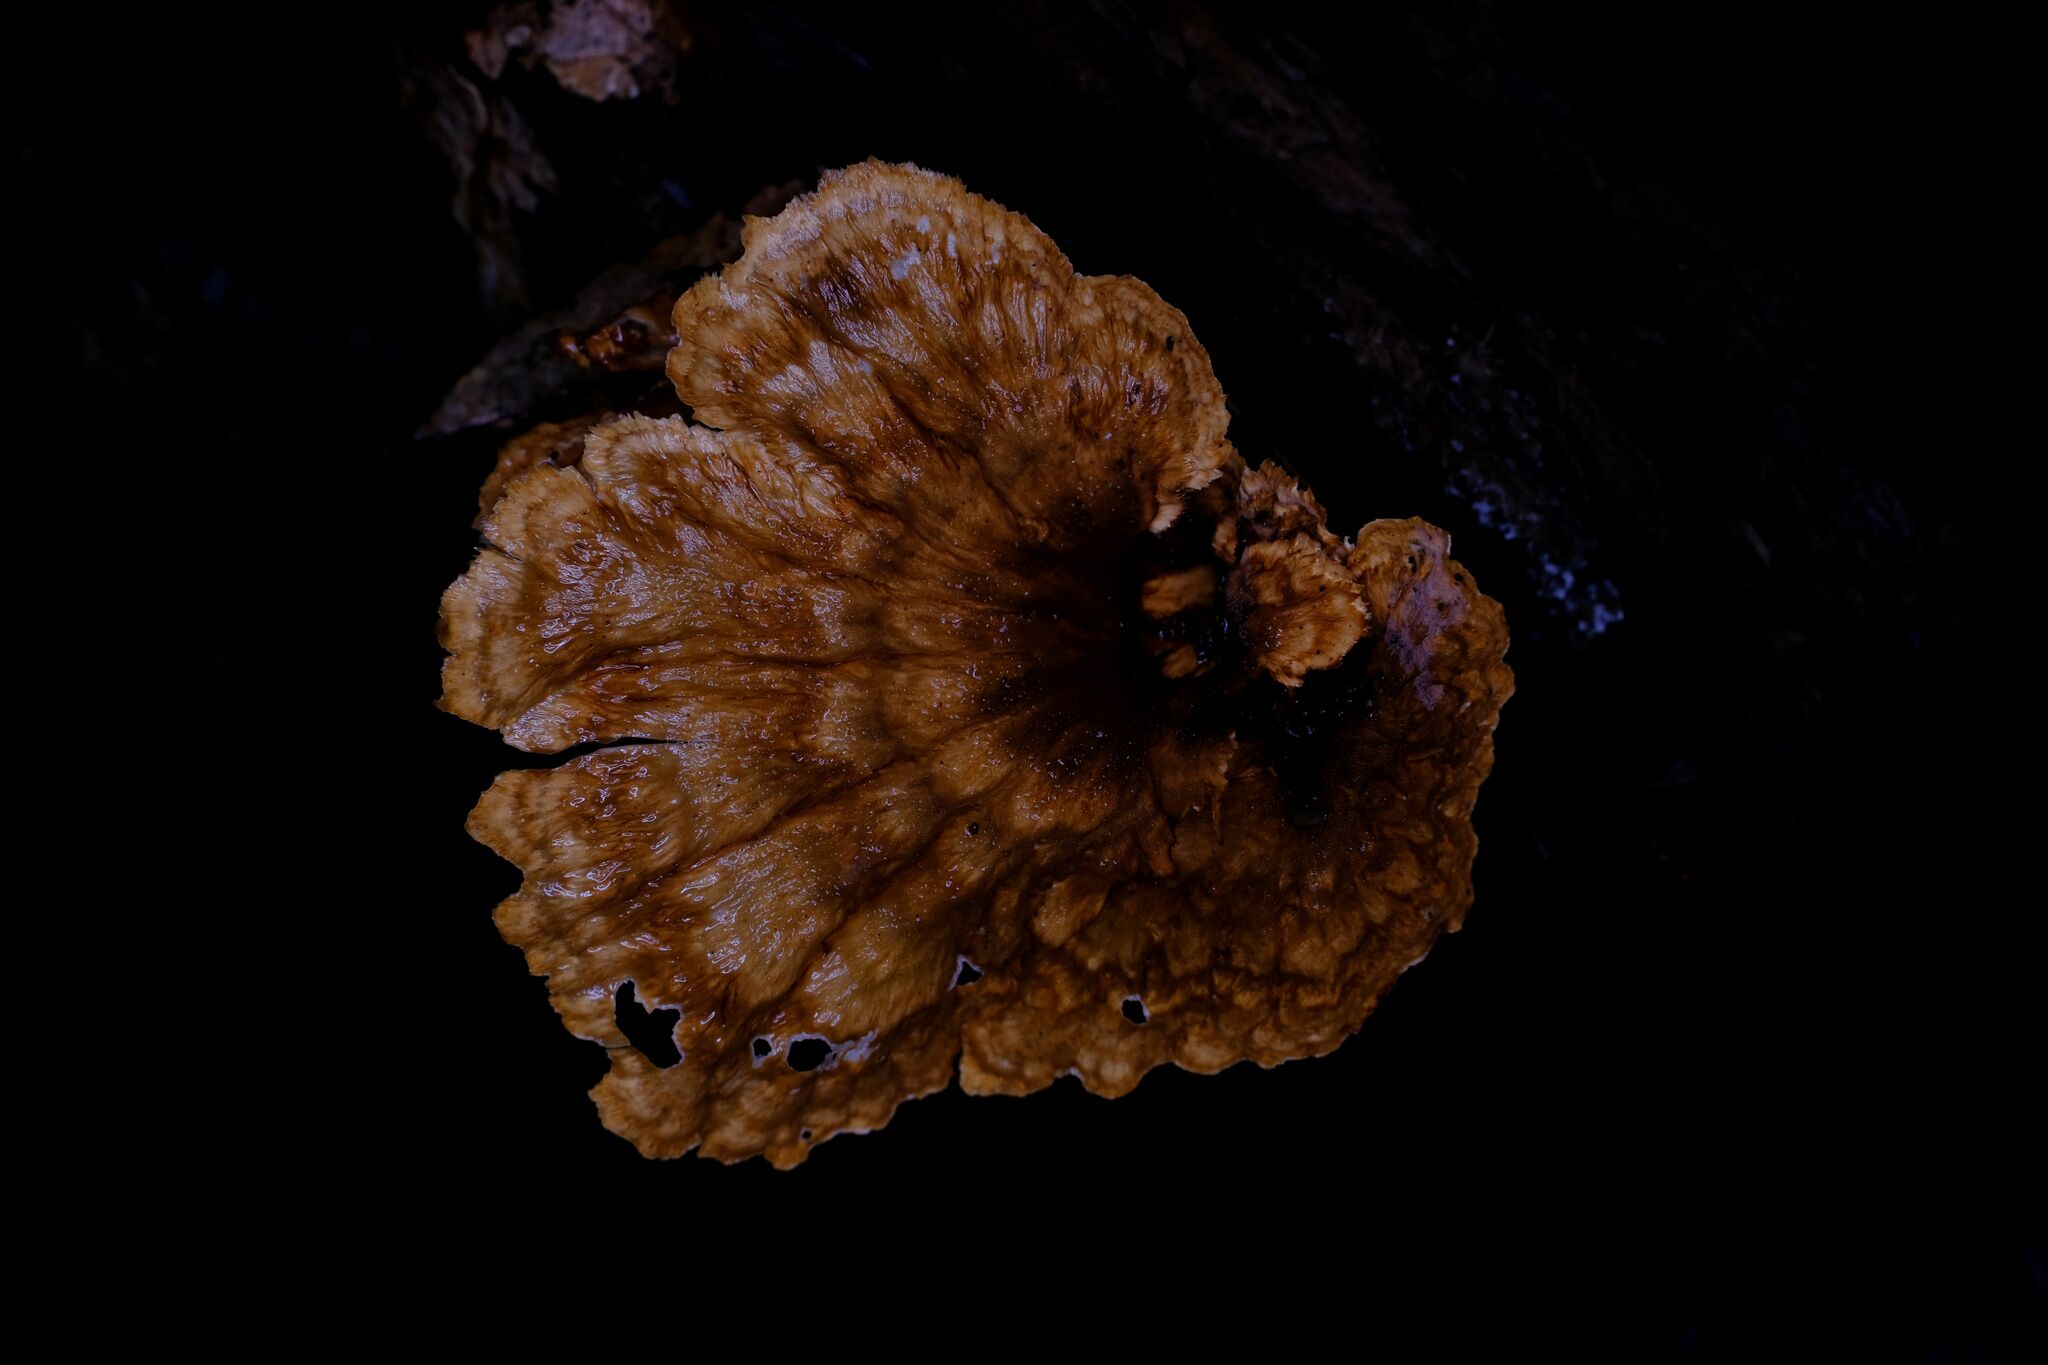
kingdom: Fungi
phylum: Basidiomycota
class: Agaricomycetes
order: Polyporales
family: Panaceae
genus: Cymatoderma
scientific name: Cymatoderma elegans
